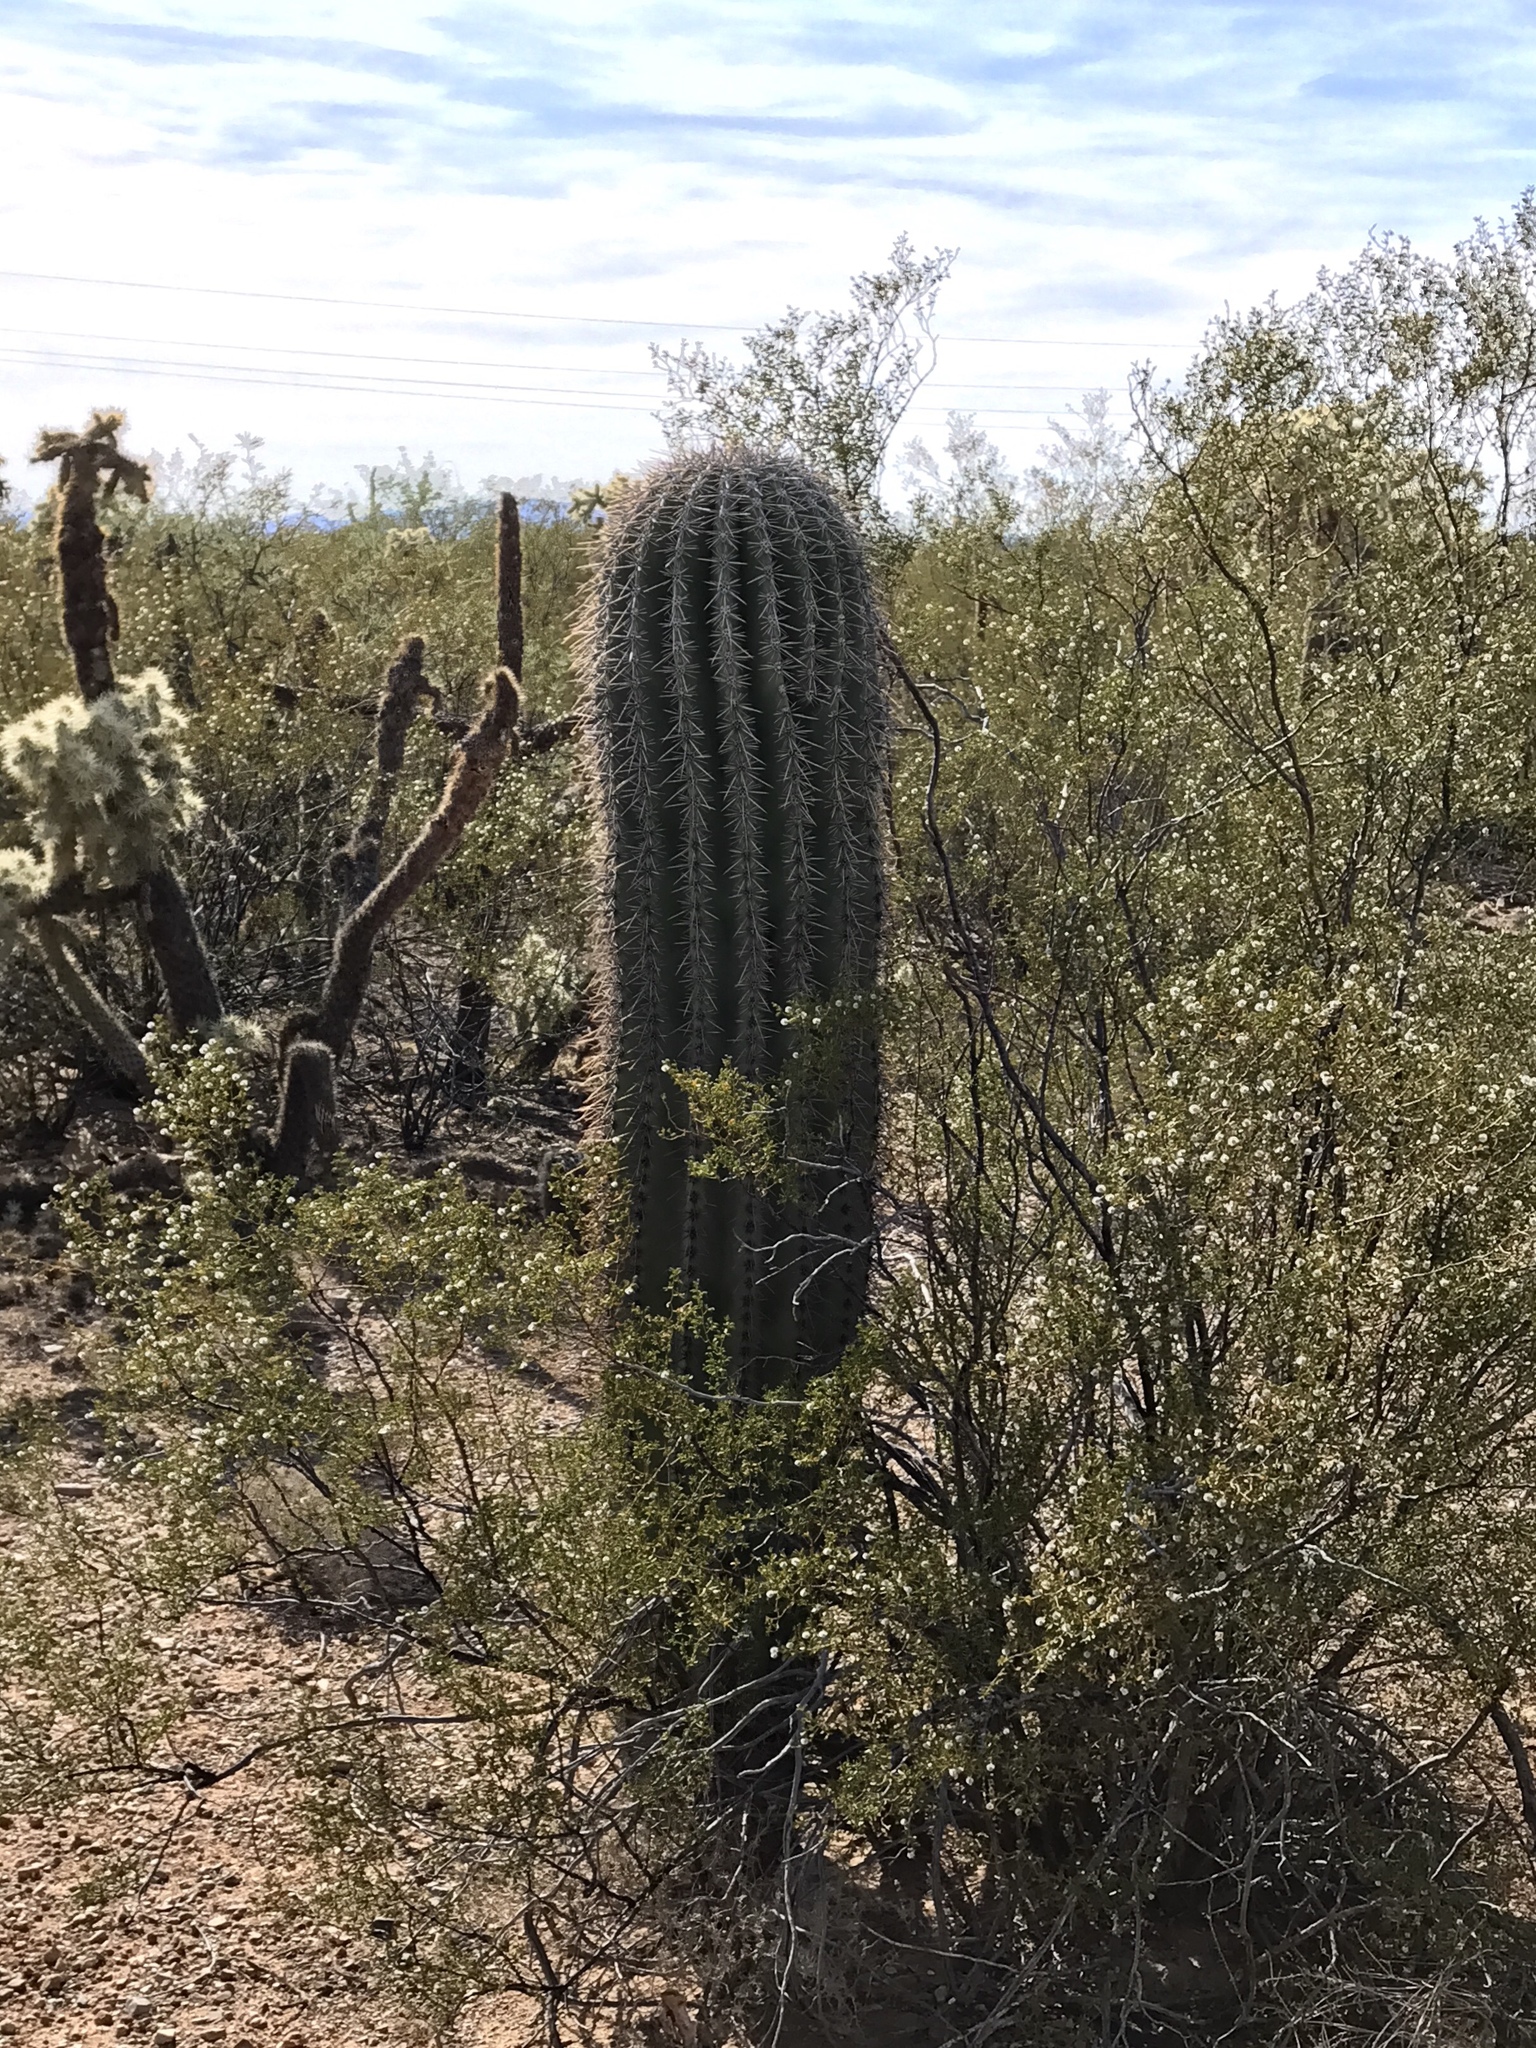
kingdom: Plantae
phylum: Tracheophyta
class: Magnoliopsida
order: Caryophyllales
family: Cactaceae
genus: Carnegiea
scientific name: Carnegiea gigantea
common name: Saguaro
